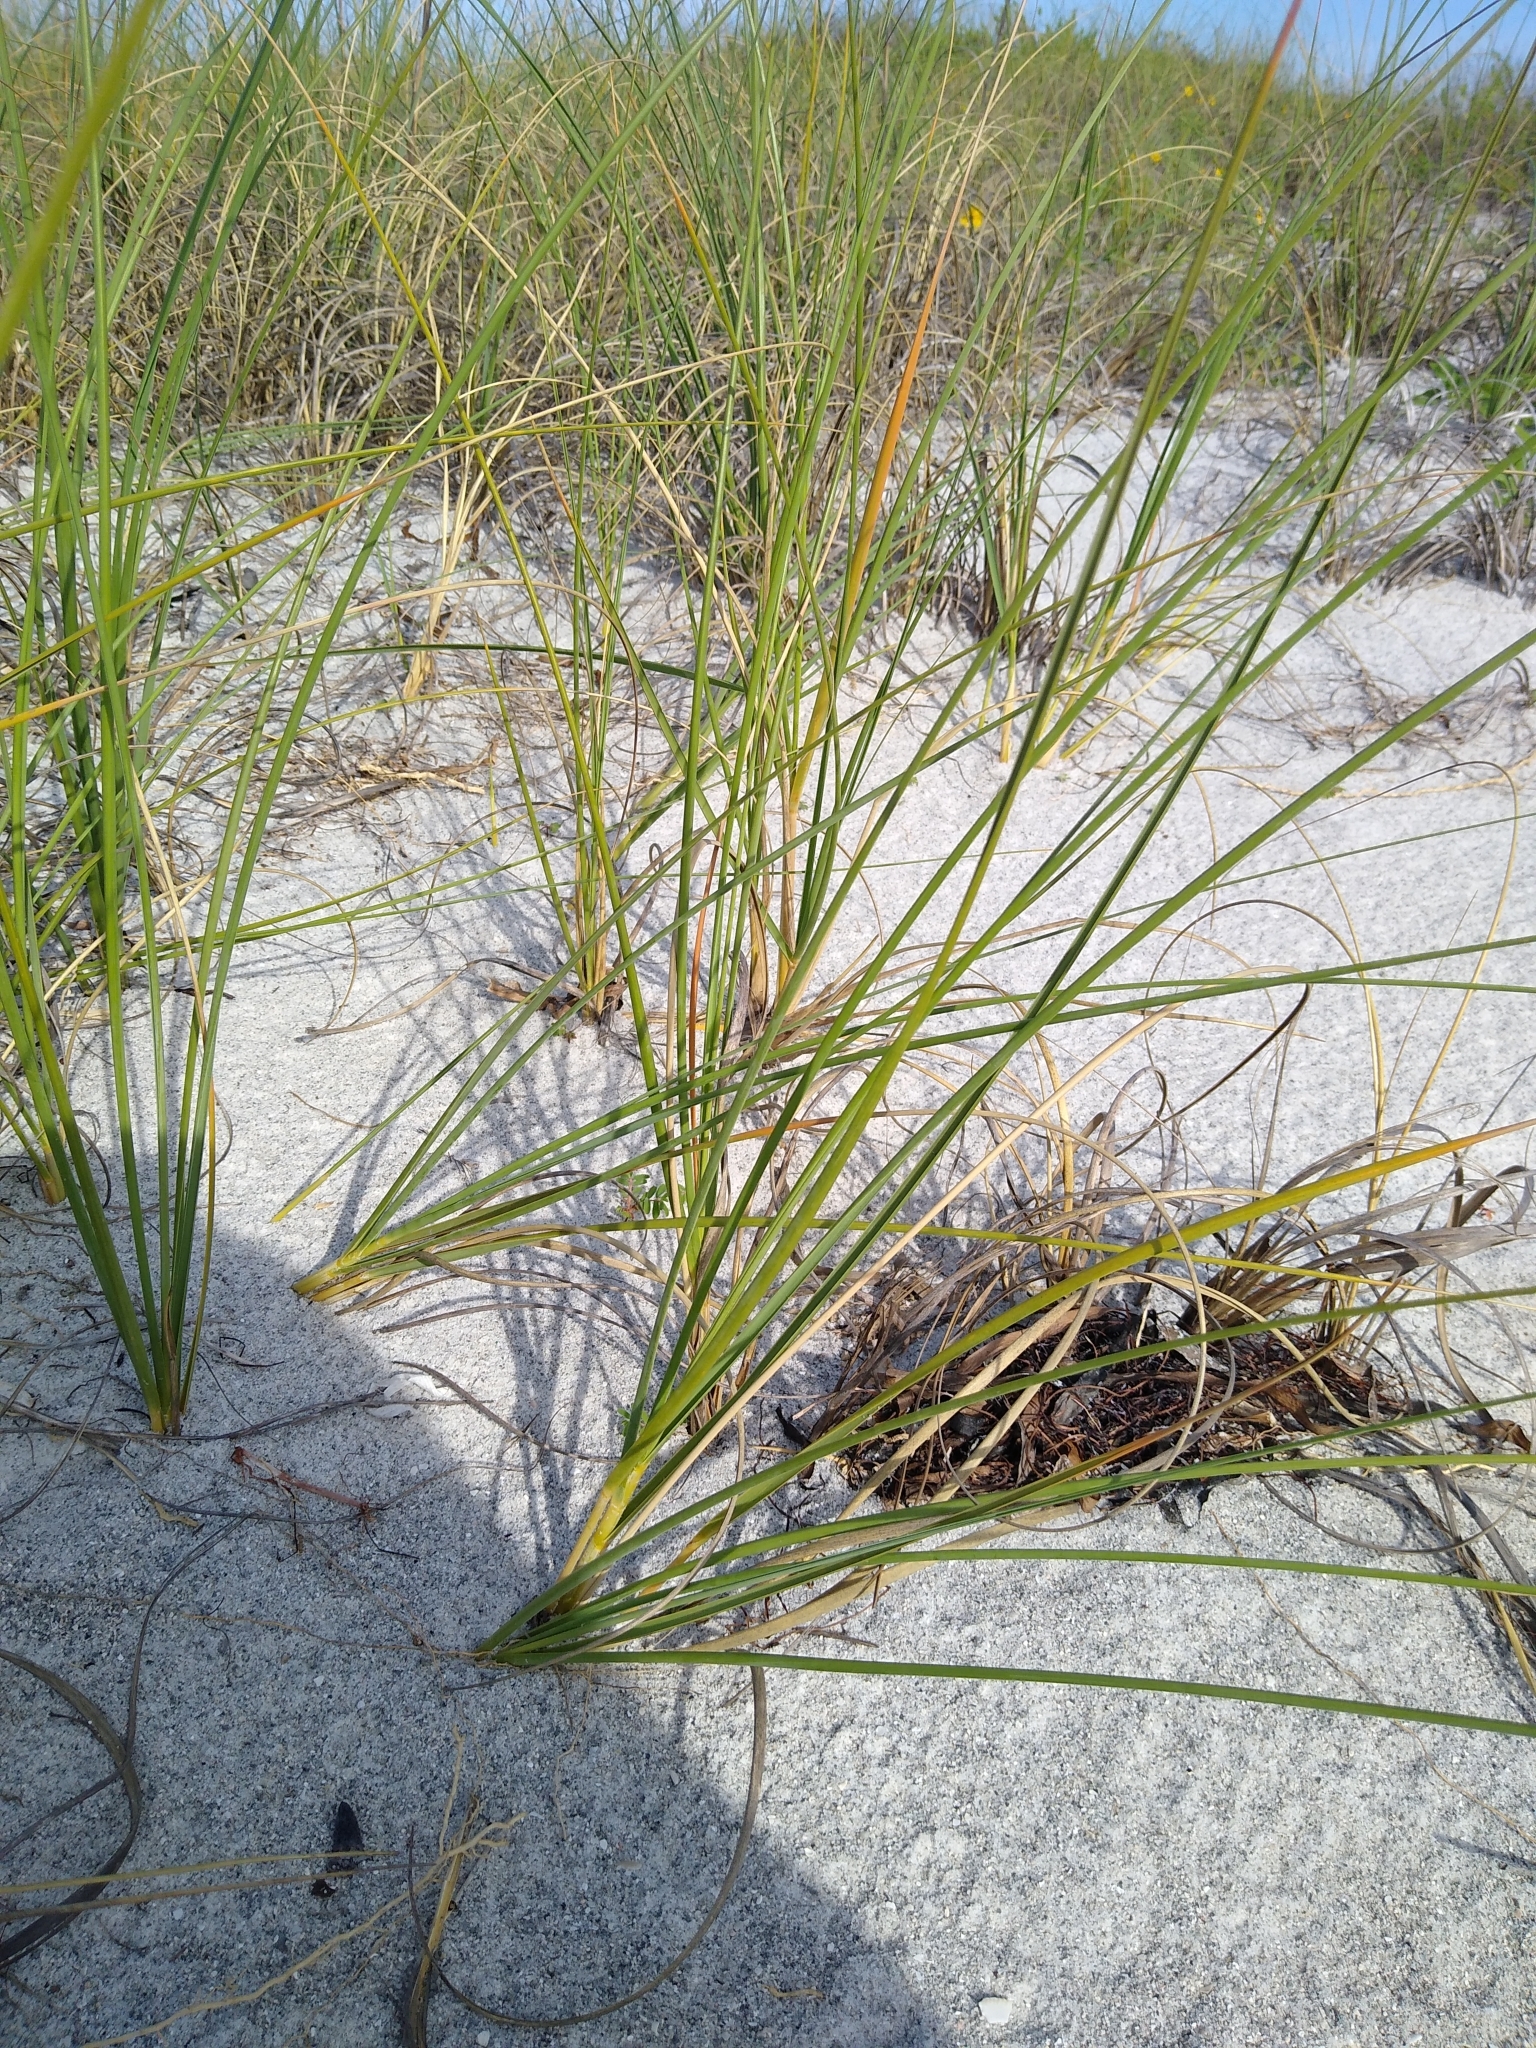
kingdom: Plantae
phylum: Tracheophyta
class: Liliopsida
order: Poales
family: Poaceae
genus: Uniola
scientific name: Uniola paniculata
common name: Seaside-oats
